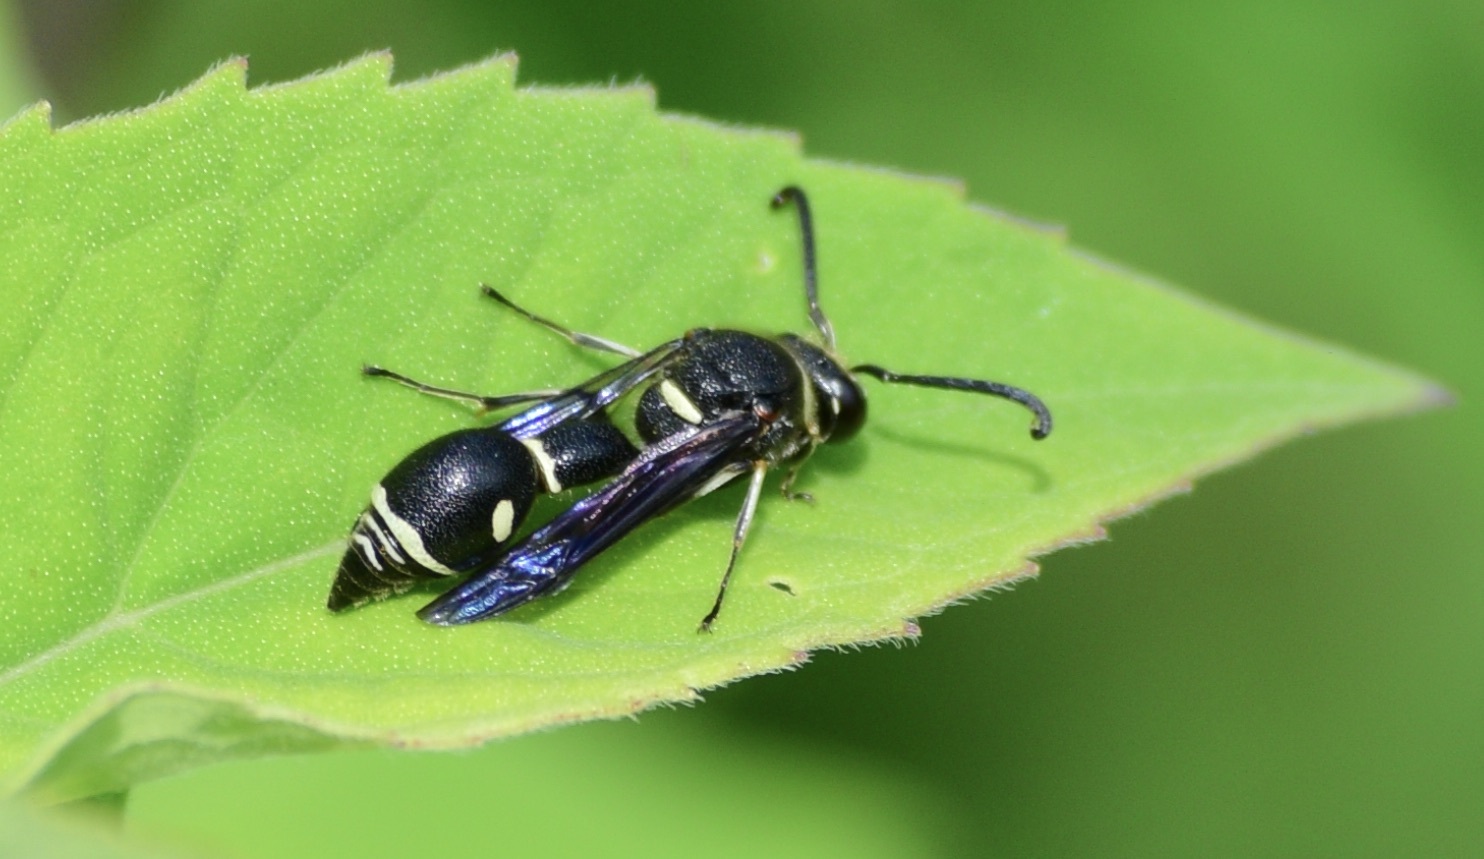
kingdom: Animalia
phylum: Arthropoda
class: Insecta
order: Hymenoptera
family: Vespidae
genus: Eumenes
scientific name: Eumenes fraternus
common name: Fraternal potter wasp
